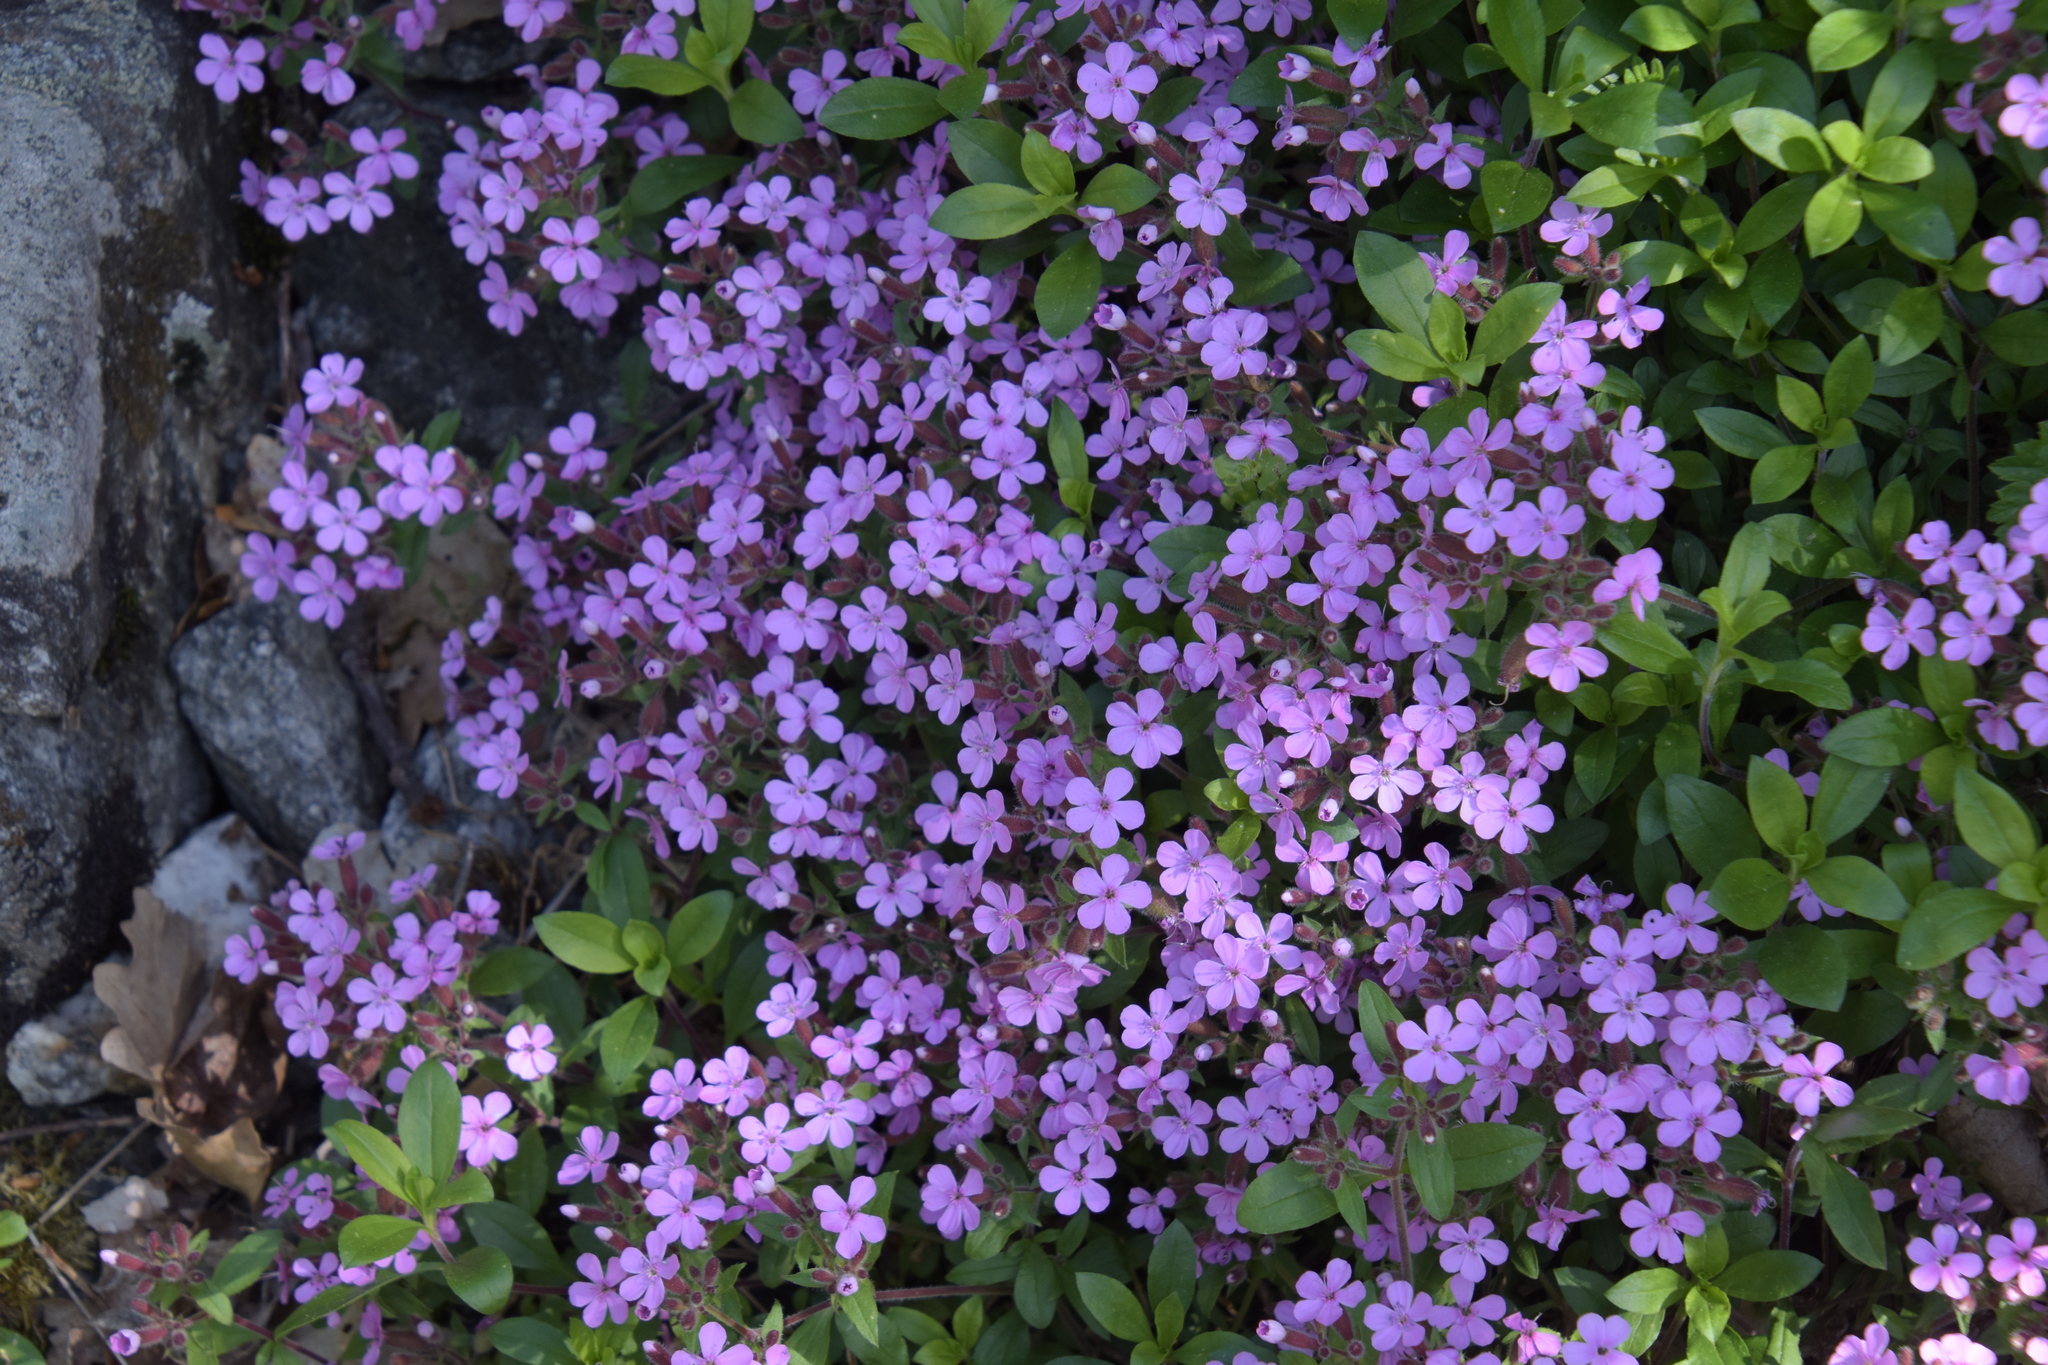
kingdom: Plantae
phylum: Tracheophyta
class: Magnoliopsida
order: Caryophyllales
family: Caryophyllaceae
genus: Saponaria
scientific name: Saponaria ocymoides
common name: Rock soapwort
